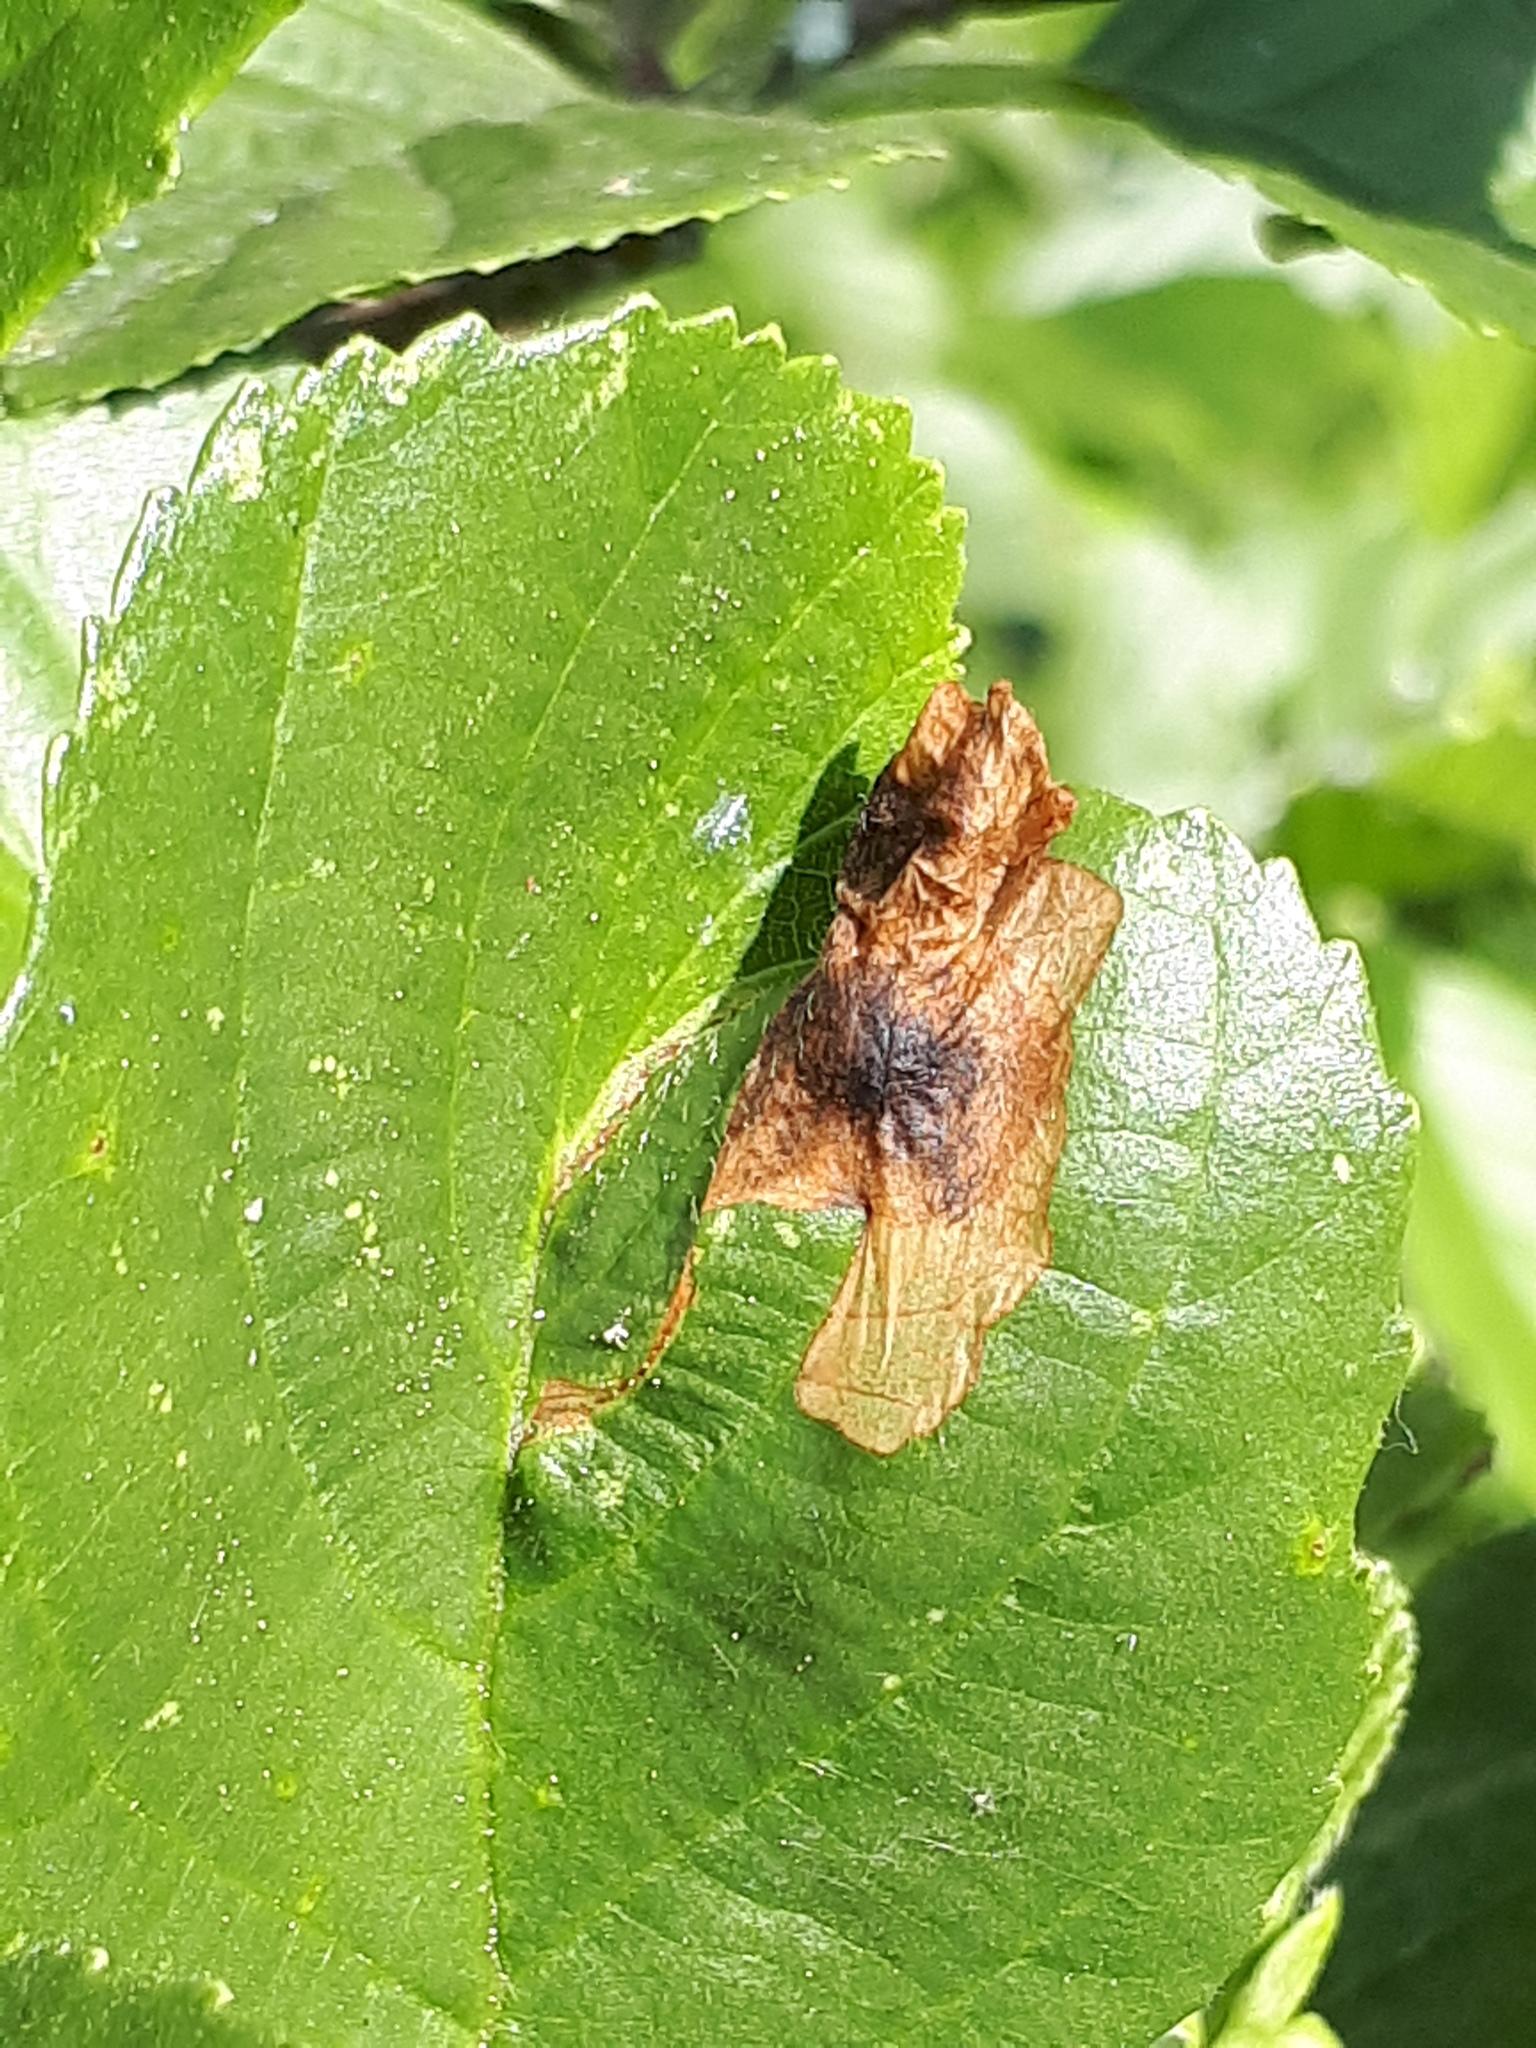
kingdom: Animalia
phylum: Arthropoda
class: Insecta
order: Coleoptera
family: Curculionidae
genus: Orchestes
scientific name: Orchestes testaceus
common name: Jumping weevil
